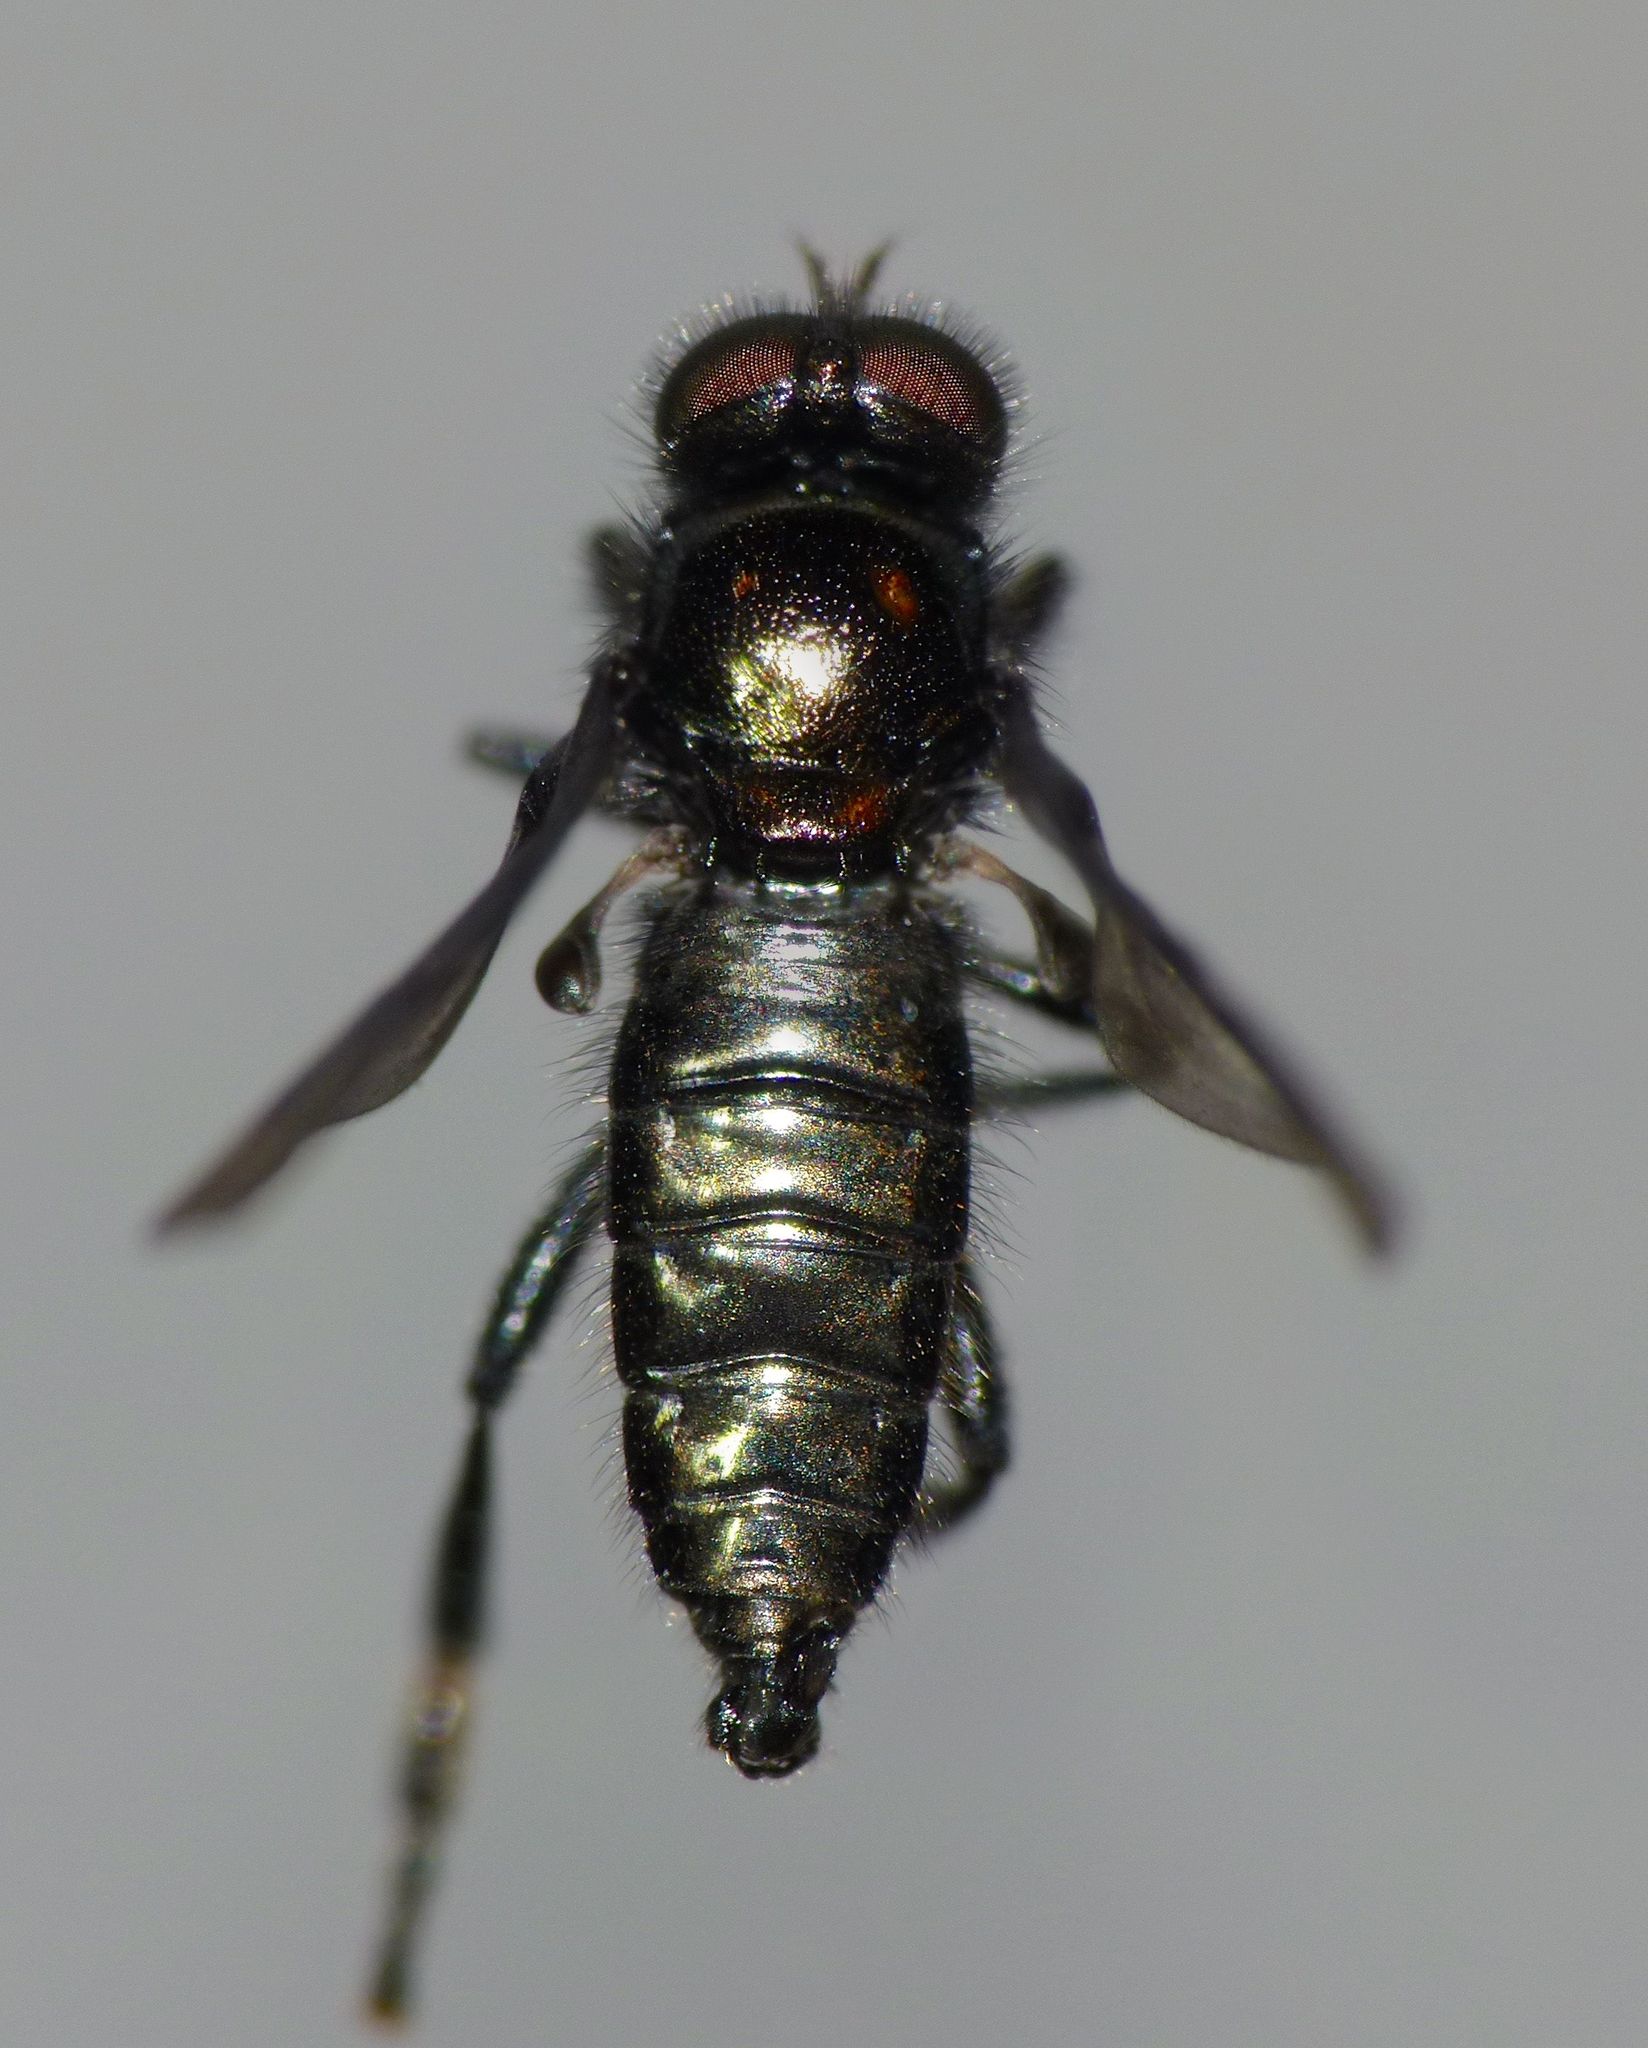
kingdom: Animalia
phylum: Arthropoda
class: Insecta
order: Diptera
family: Stratiomyidae
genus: Berisina
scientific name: Berisina maculipennis
